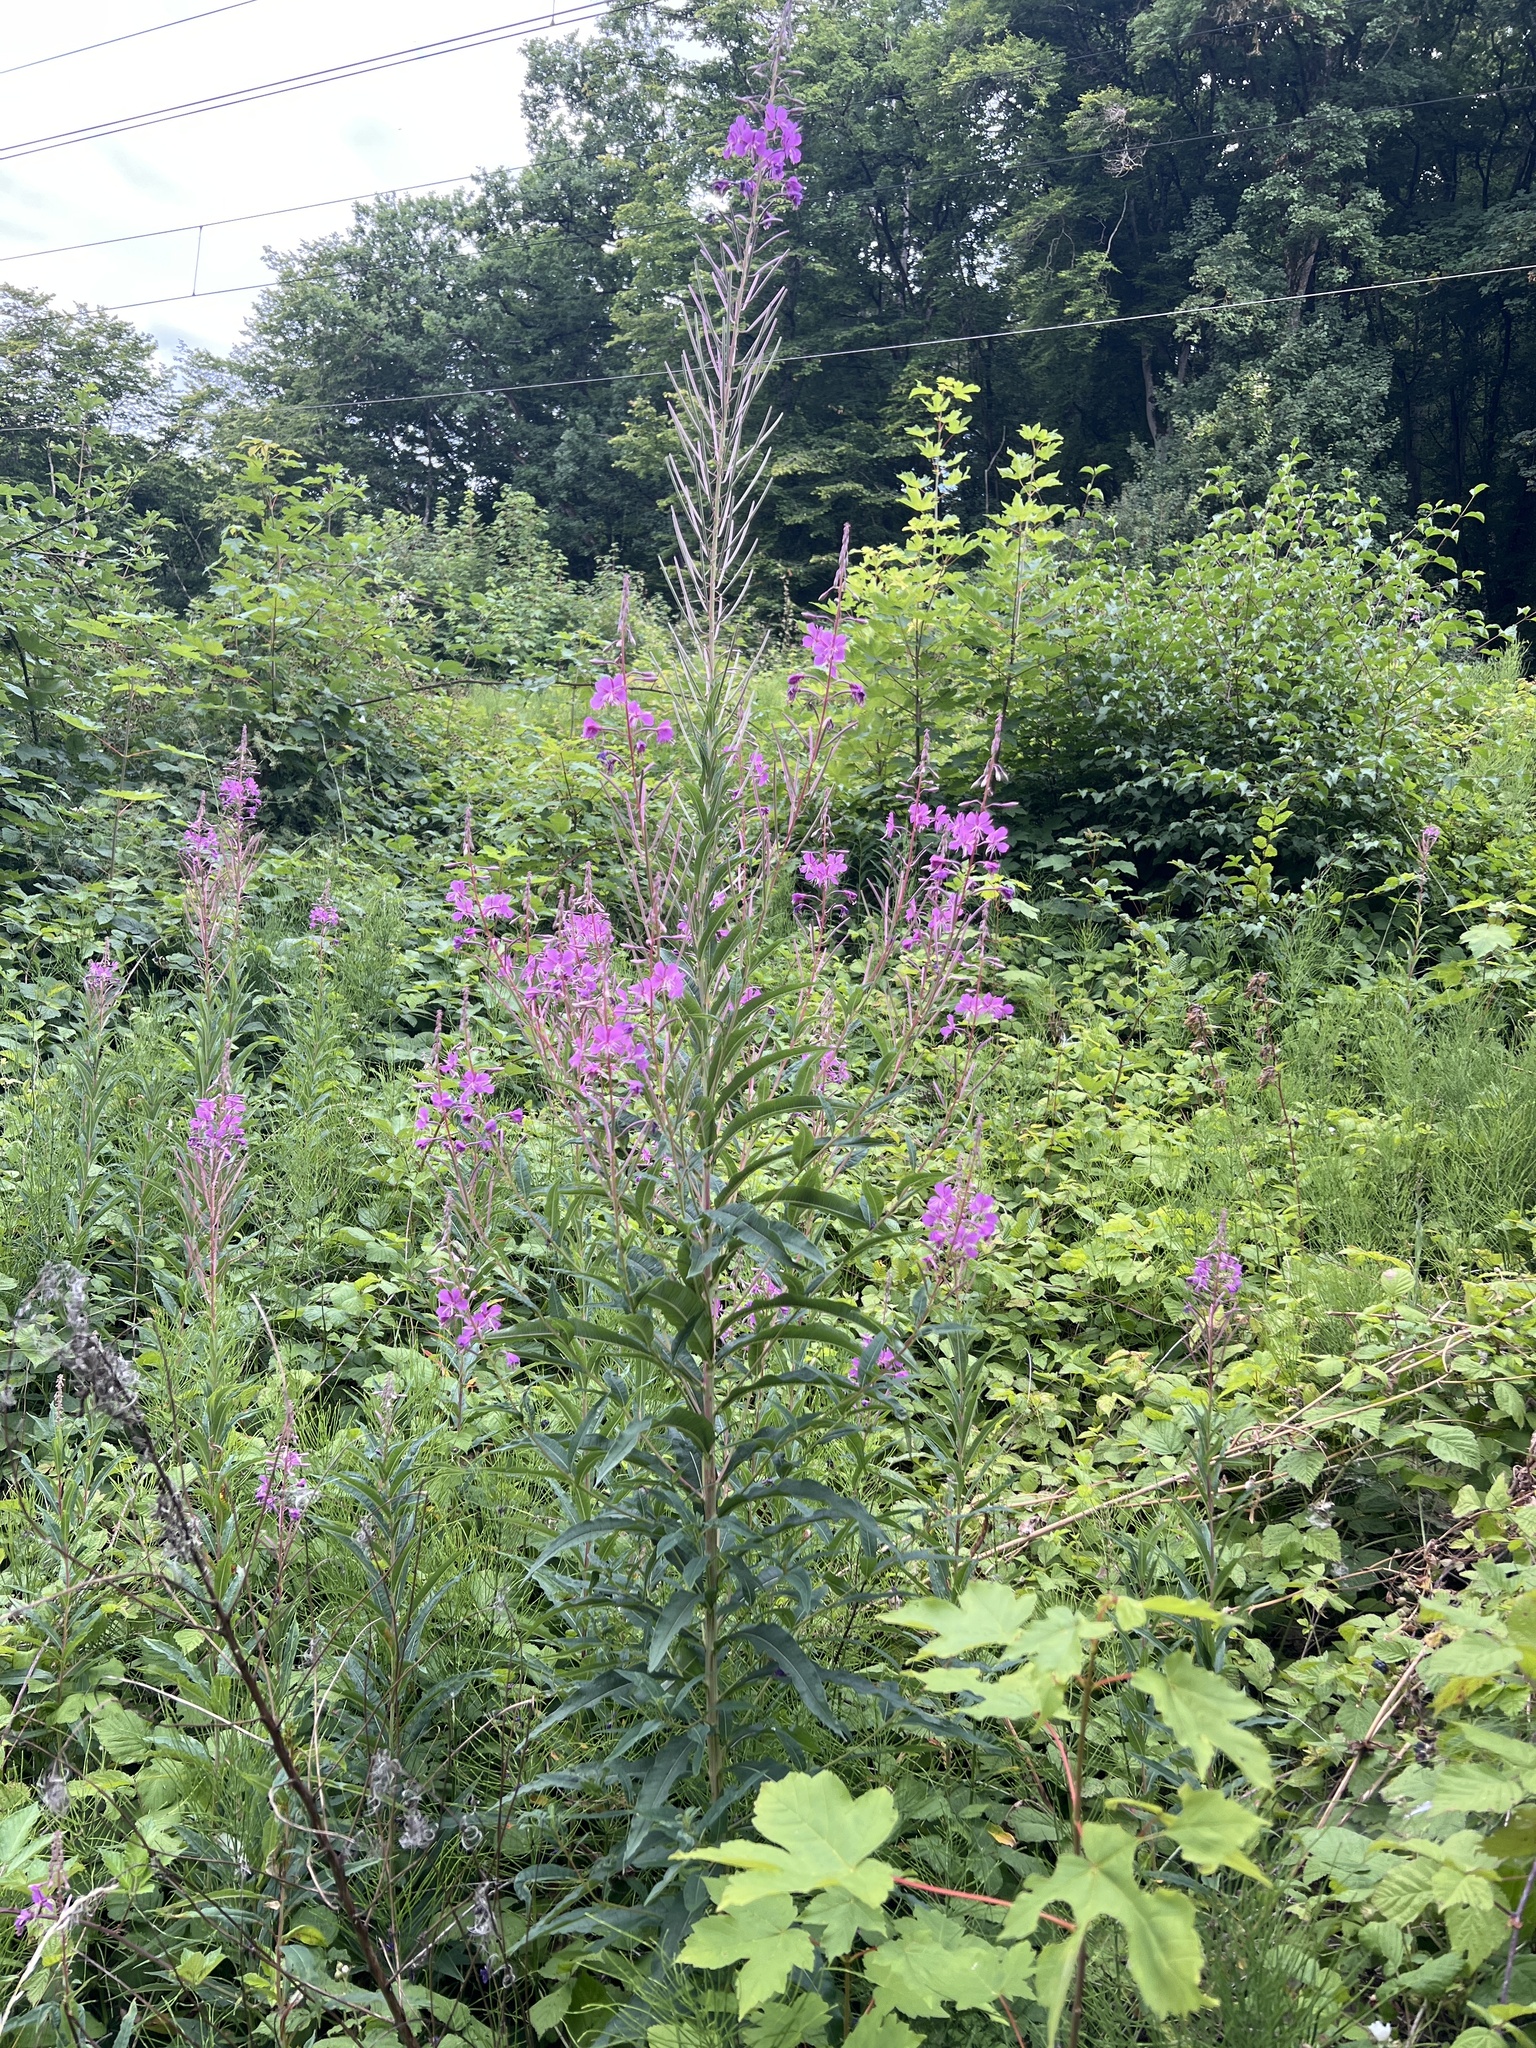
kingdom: Plantae
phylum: Tracheophyta
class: Magnoliopsida
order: Myrtales
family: Onagraceae
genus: Chamaenerion
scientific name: Chamaenerion angustifolium
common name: Fireweed
